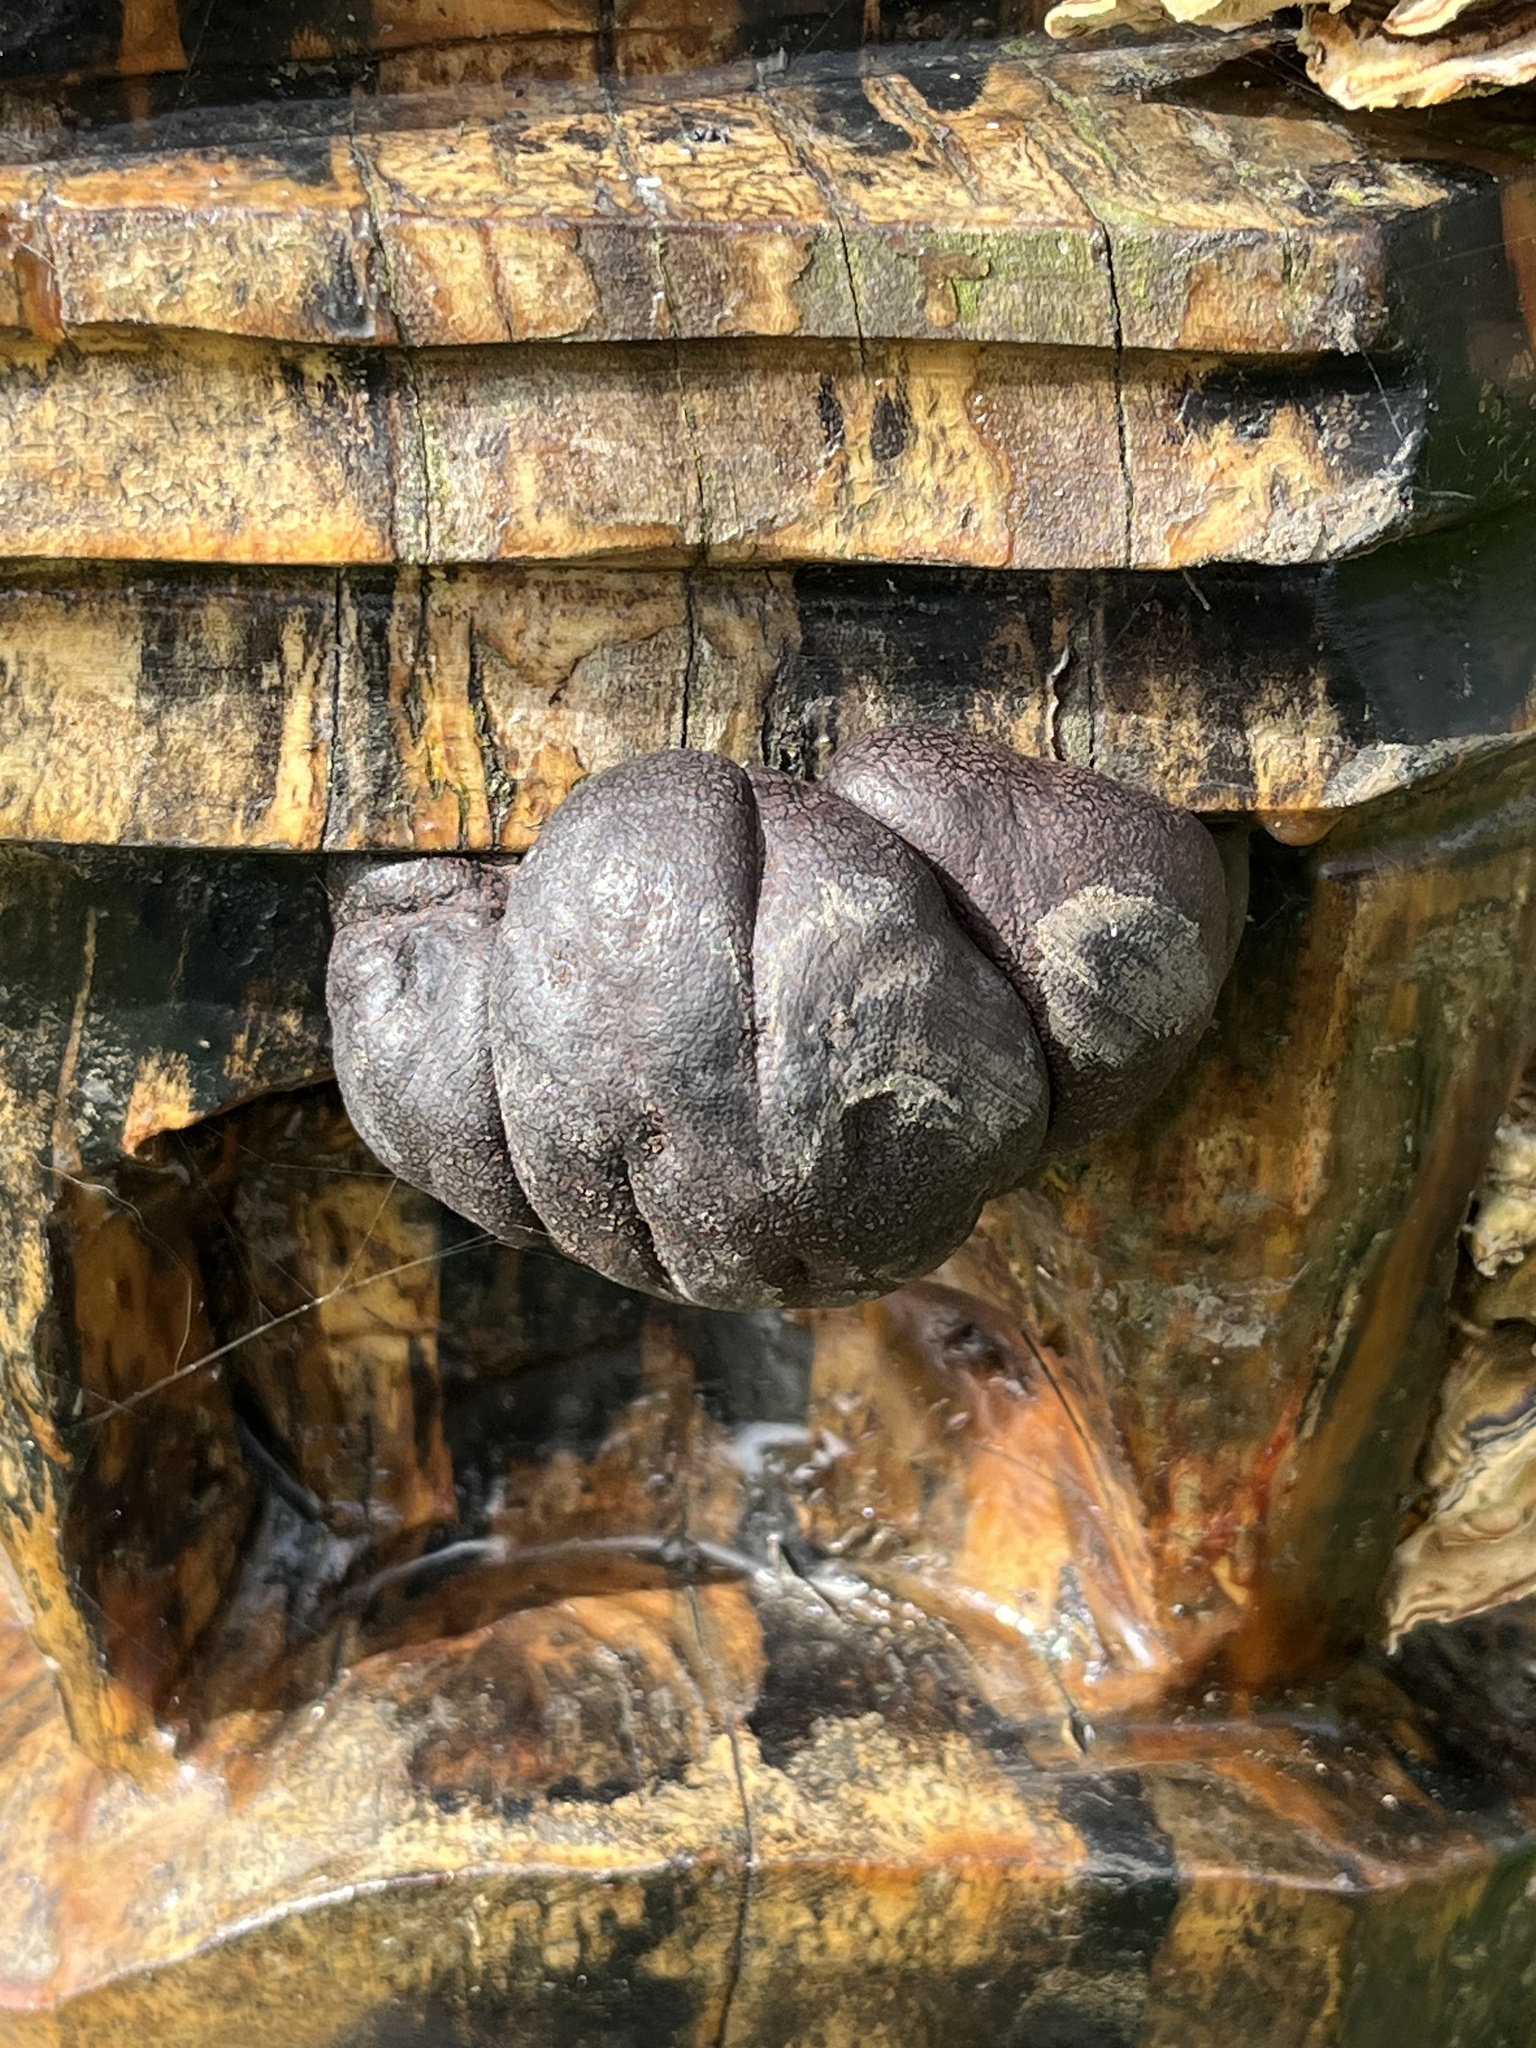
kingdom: Fungi
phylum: Ascomycota
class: Sordariomycetes
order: Xylariales
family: Hypoxylaceae
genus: Daldinia
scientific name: Daldinia concentrica
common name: Cramp balls
